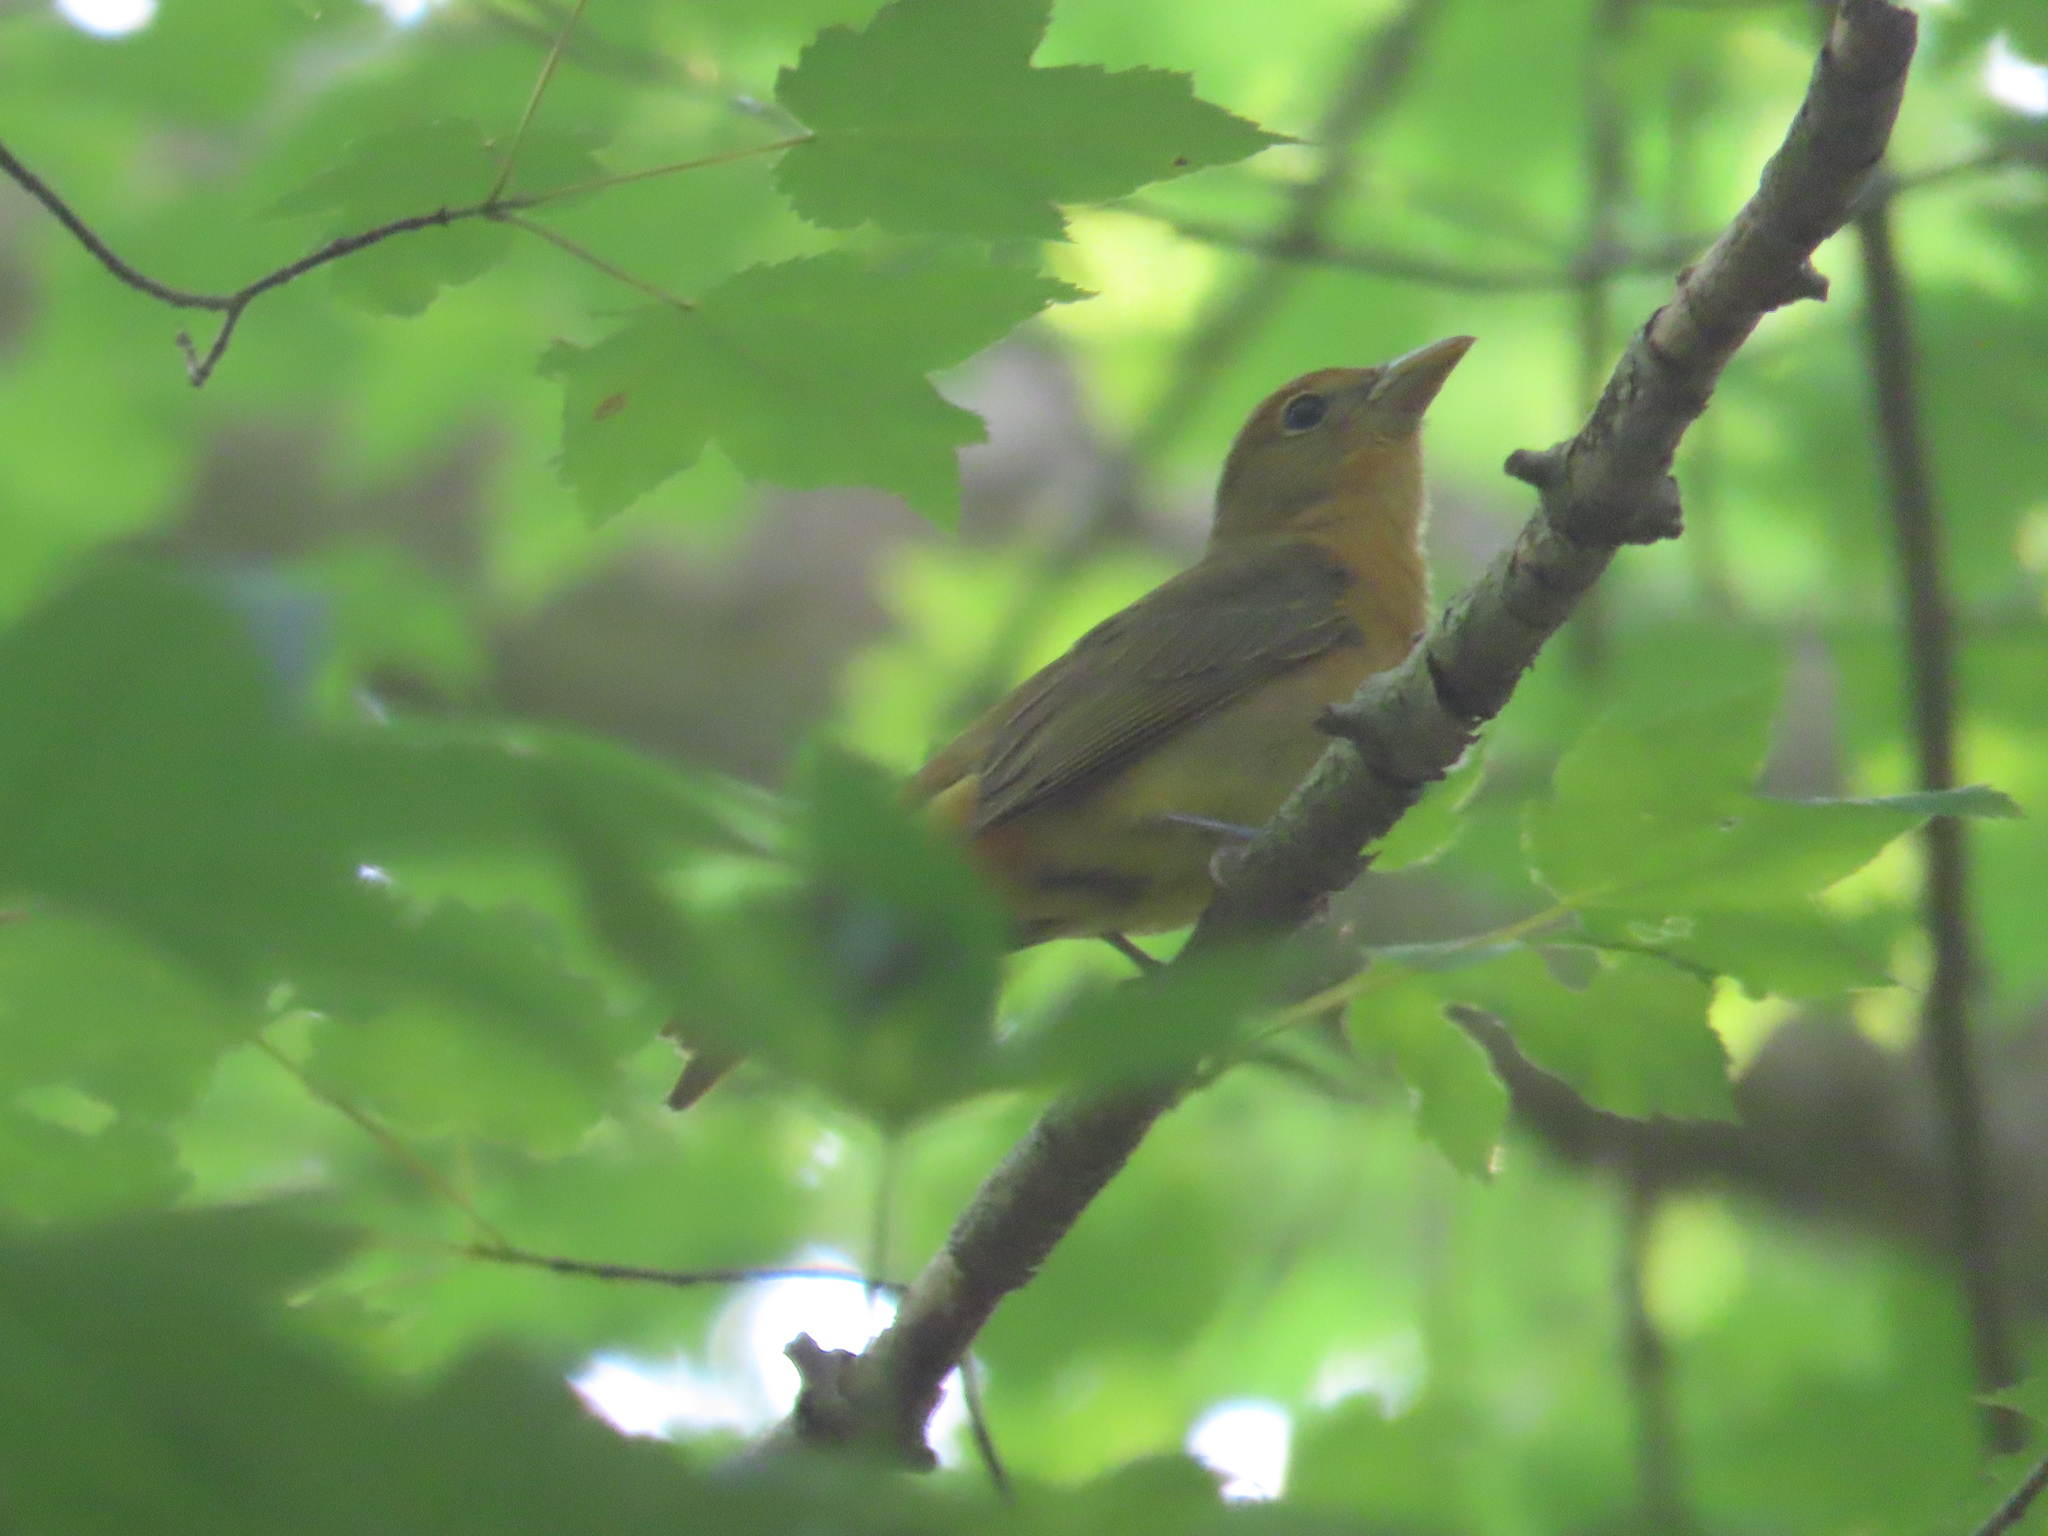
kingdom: Animalia
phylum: Chordata
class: Aves
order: Passeriformes
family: Cardinalidae
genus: Piranga
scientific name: Piranga rubra
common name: Summer tanager
